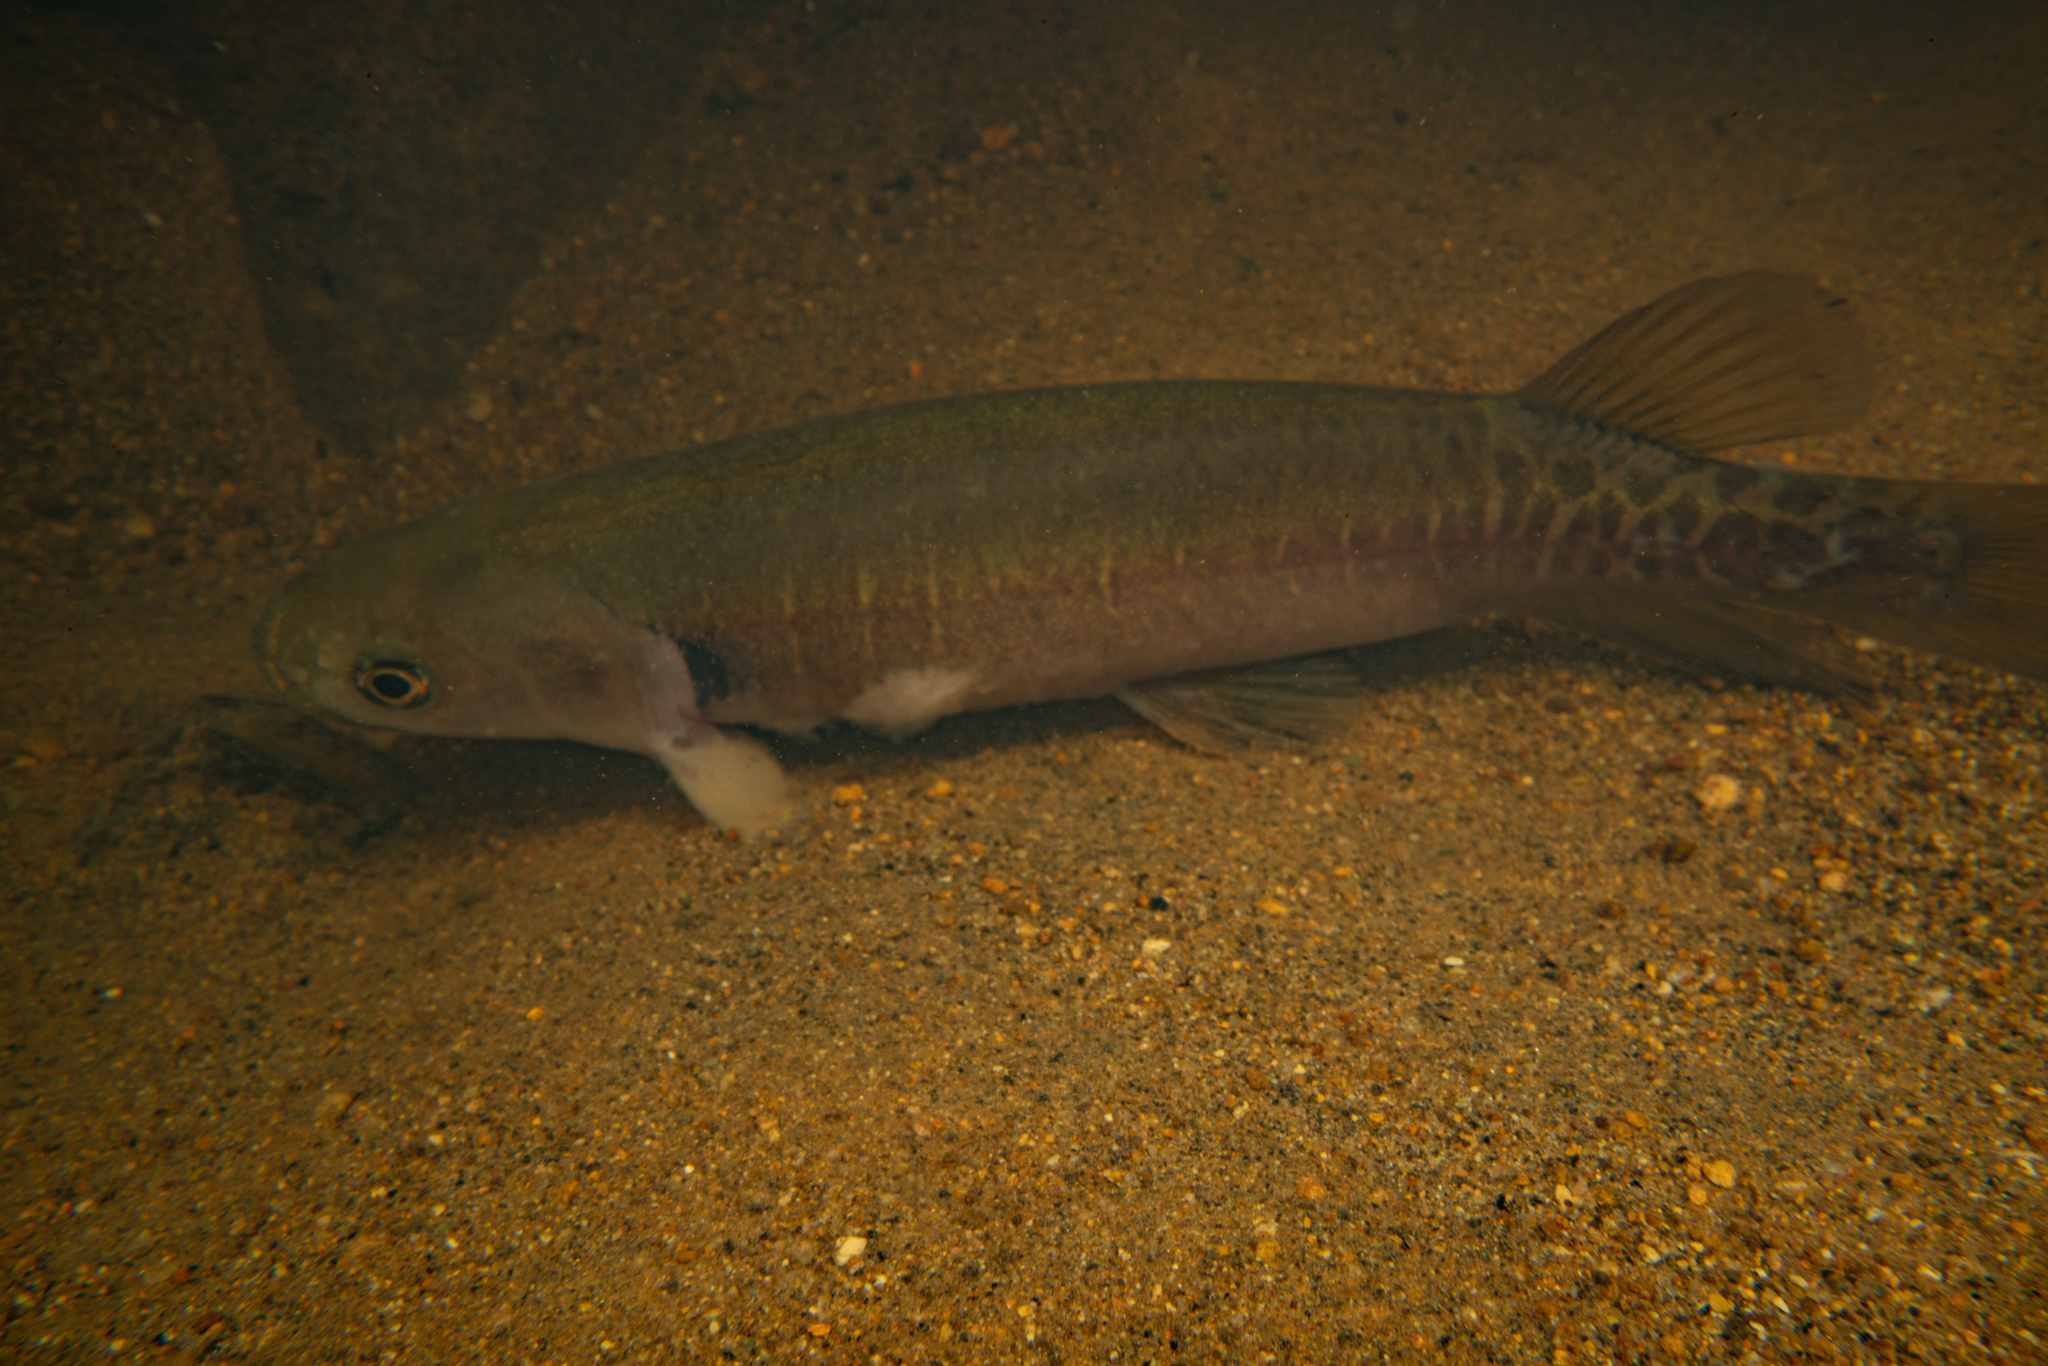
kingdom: Animalia
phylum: Chordata
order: Osmeriformes
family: Galaxiidae
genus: Galaxias
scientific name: Galaxias fasciatus
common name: Banded kokopu
